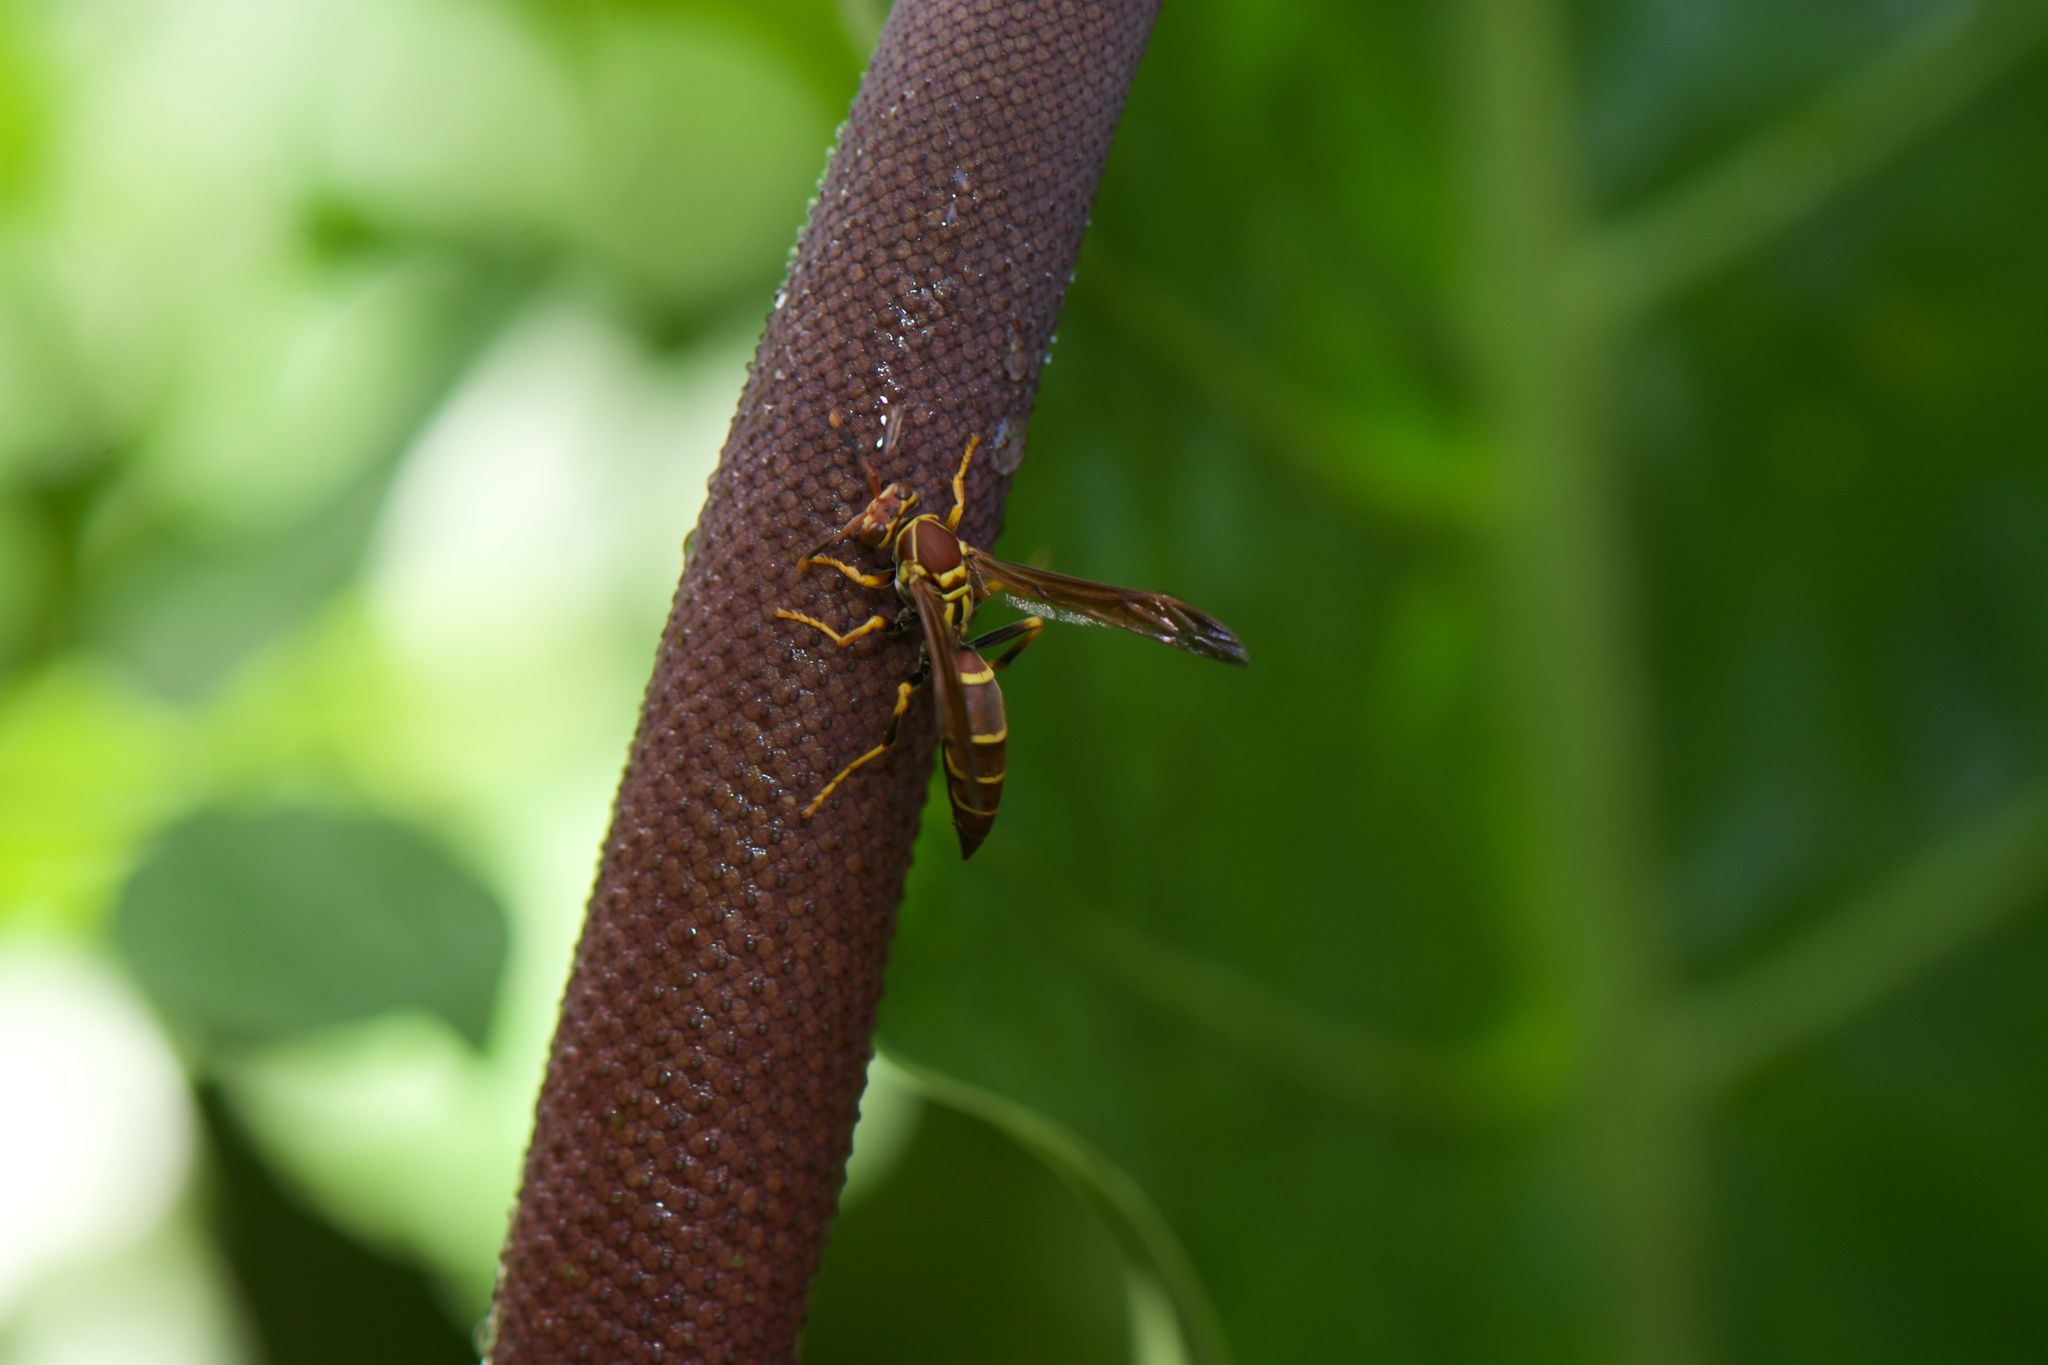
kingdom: Animalia
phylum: Arthropoda
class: Insecta
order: Hymenoptera
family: Eumenidae
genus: Polistes
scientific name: Polistes instabilis
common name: Unstable paper wasp
